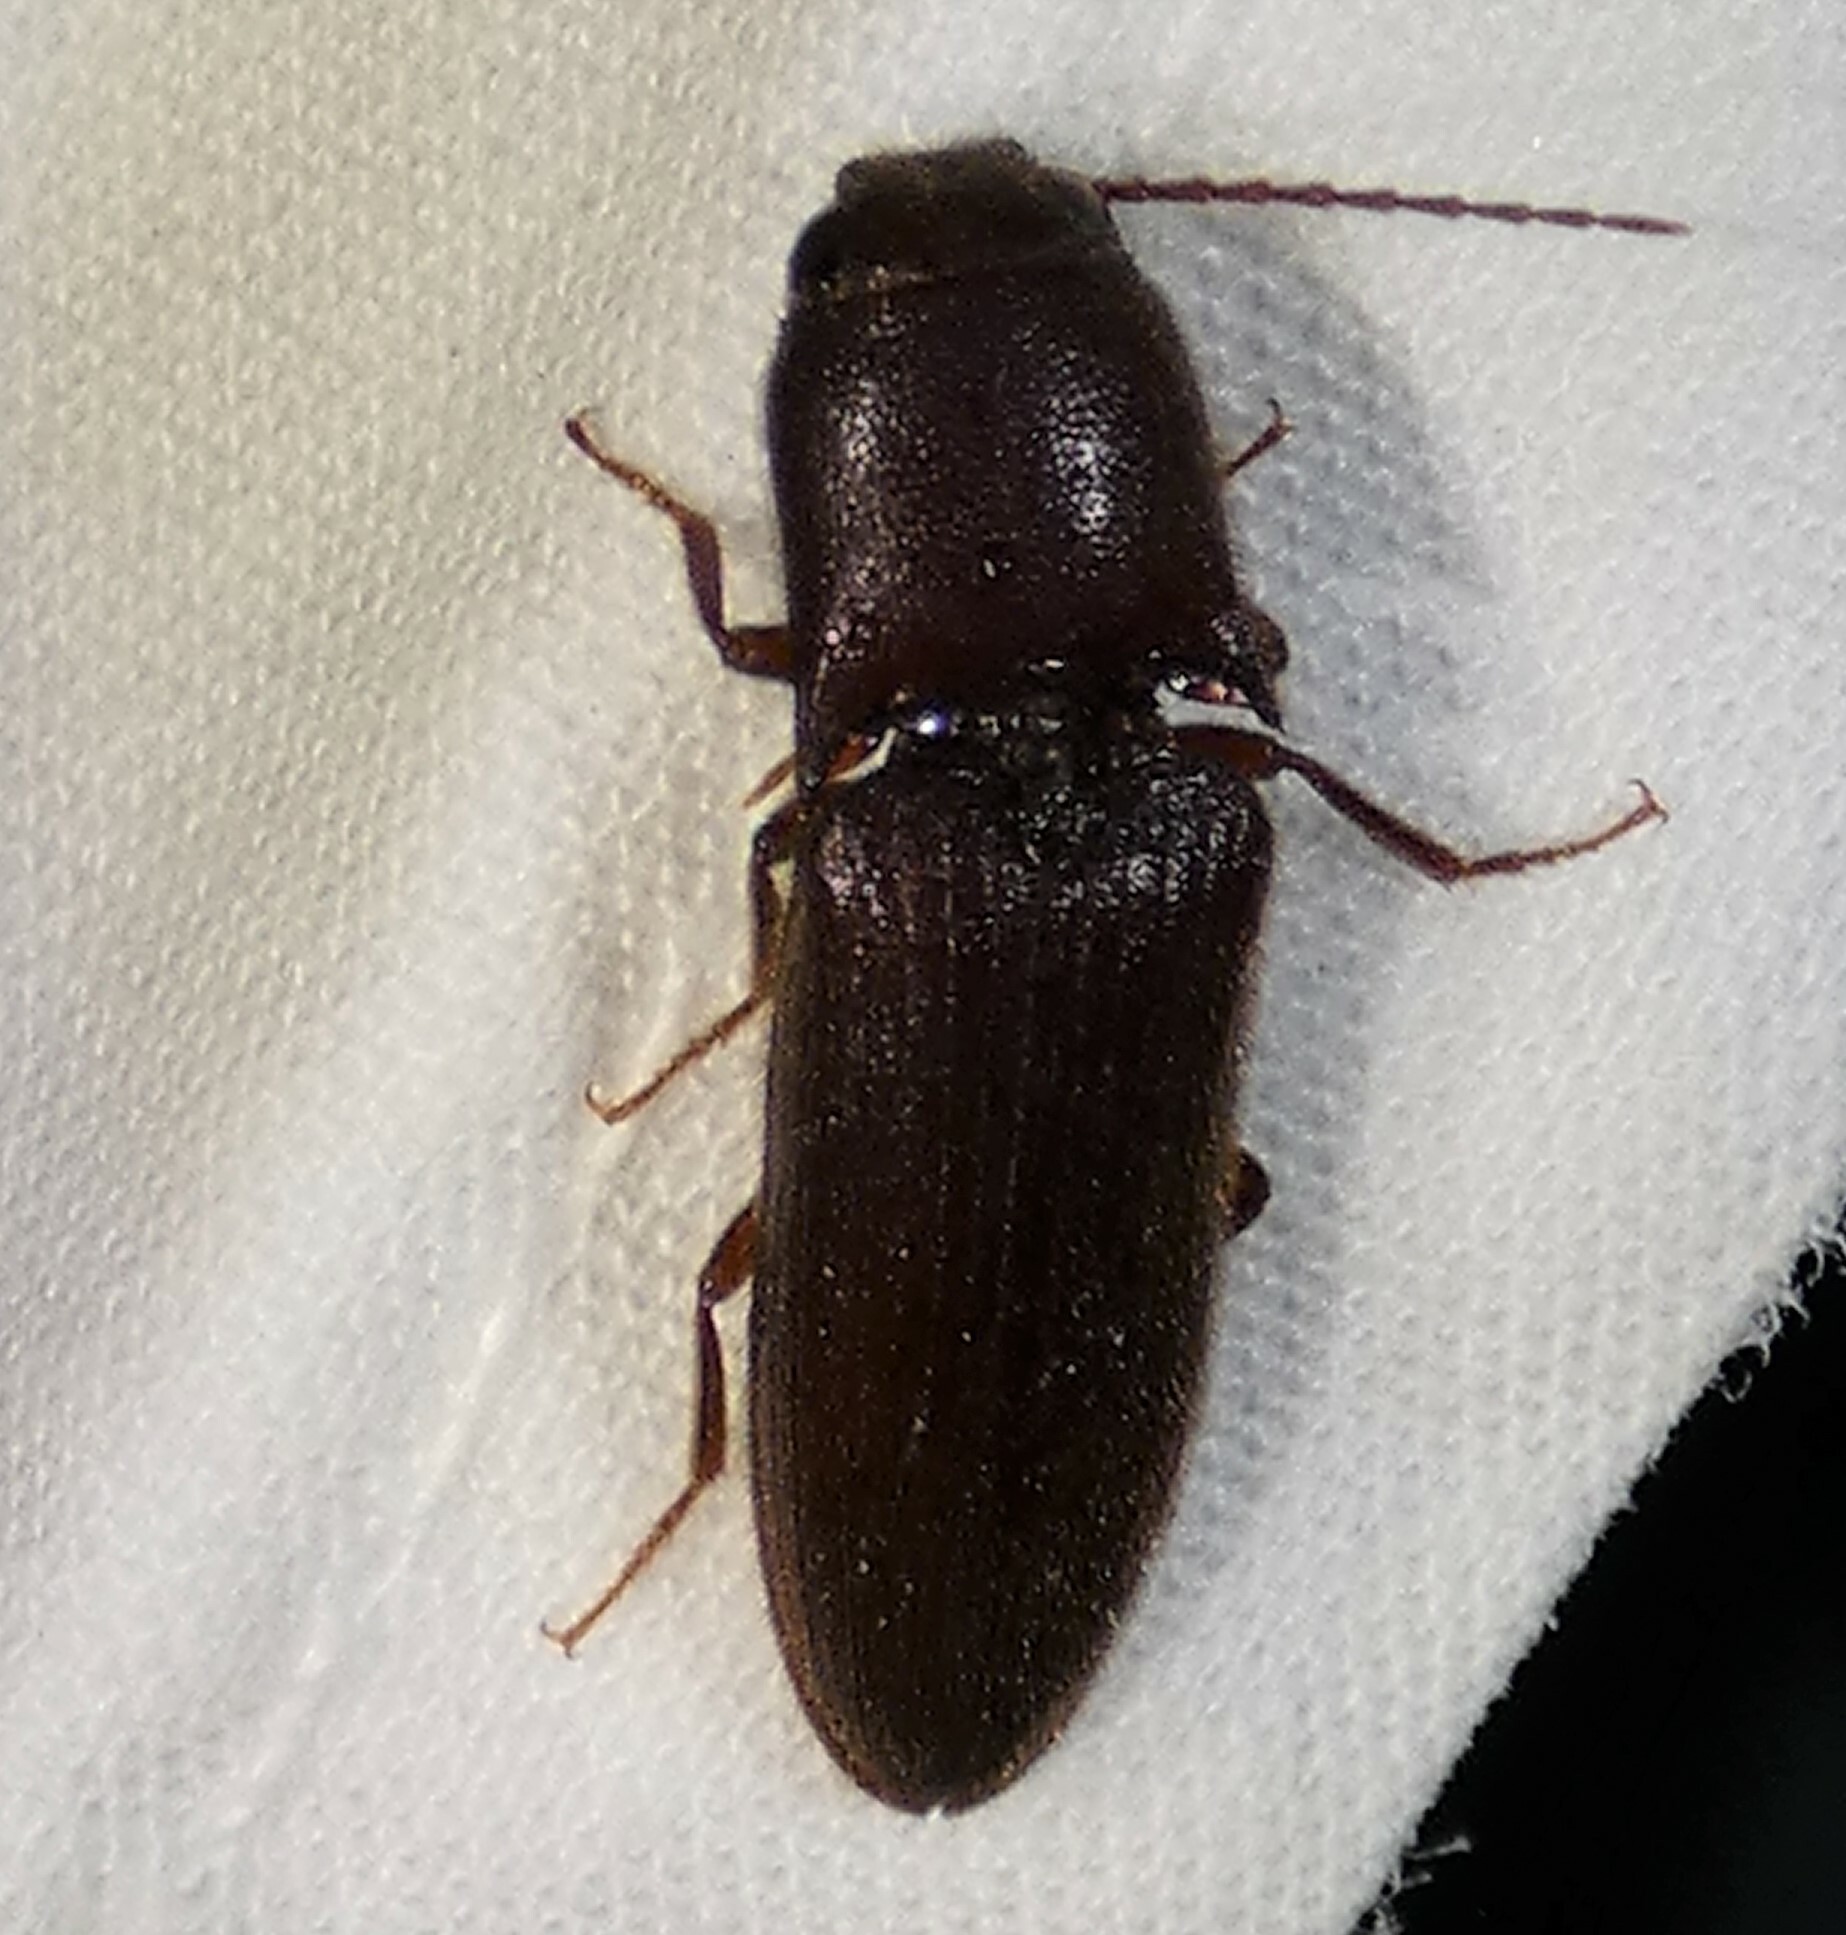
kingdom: Animalia
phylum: Arthropoda
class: Insecta
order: Coleoptera
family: Elateridae
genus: Blauta
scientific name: Blauta
